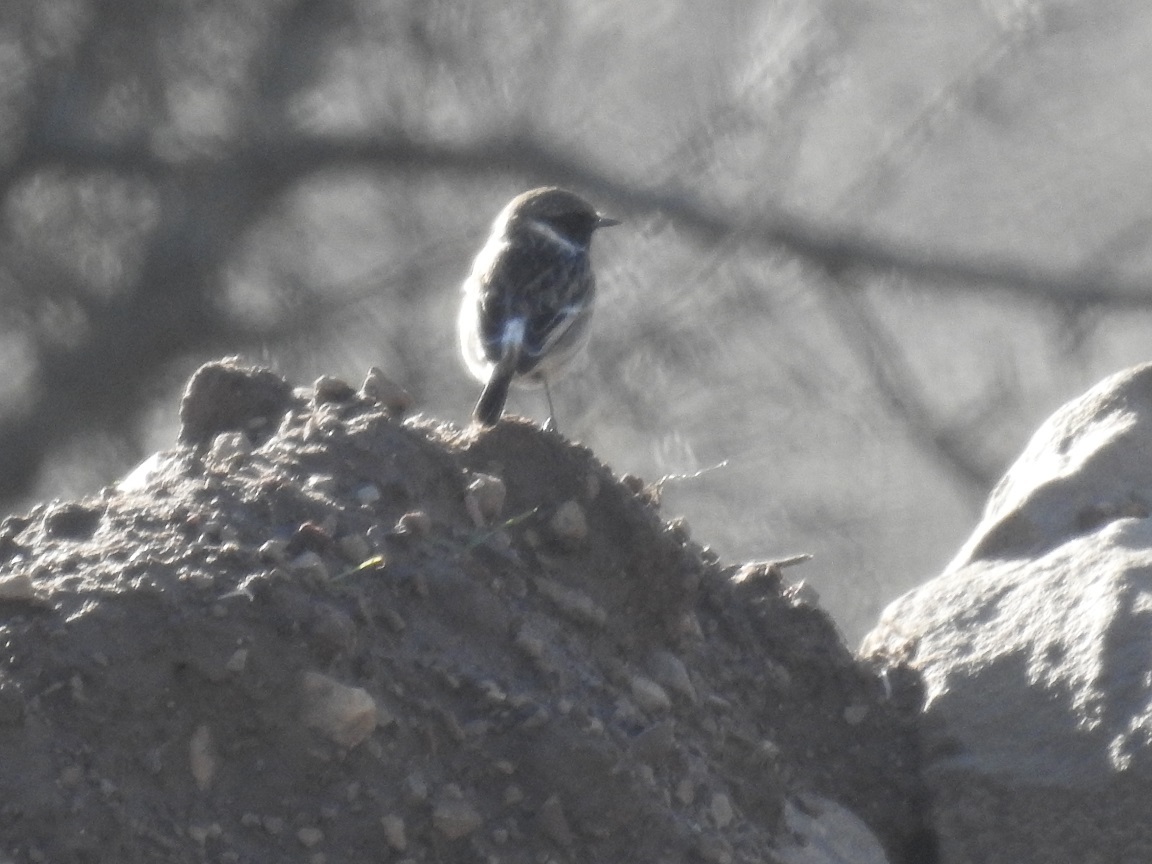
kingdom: Animalia
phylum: Chordata
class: Aves
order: Passeriformes
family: Muscicapidae
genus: Saxicola
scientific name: Saxicola rubicola
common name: European stonechat
